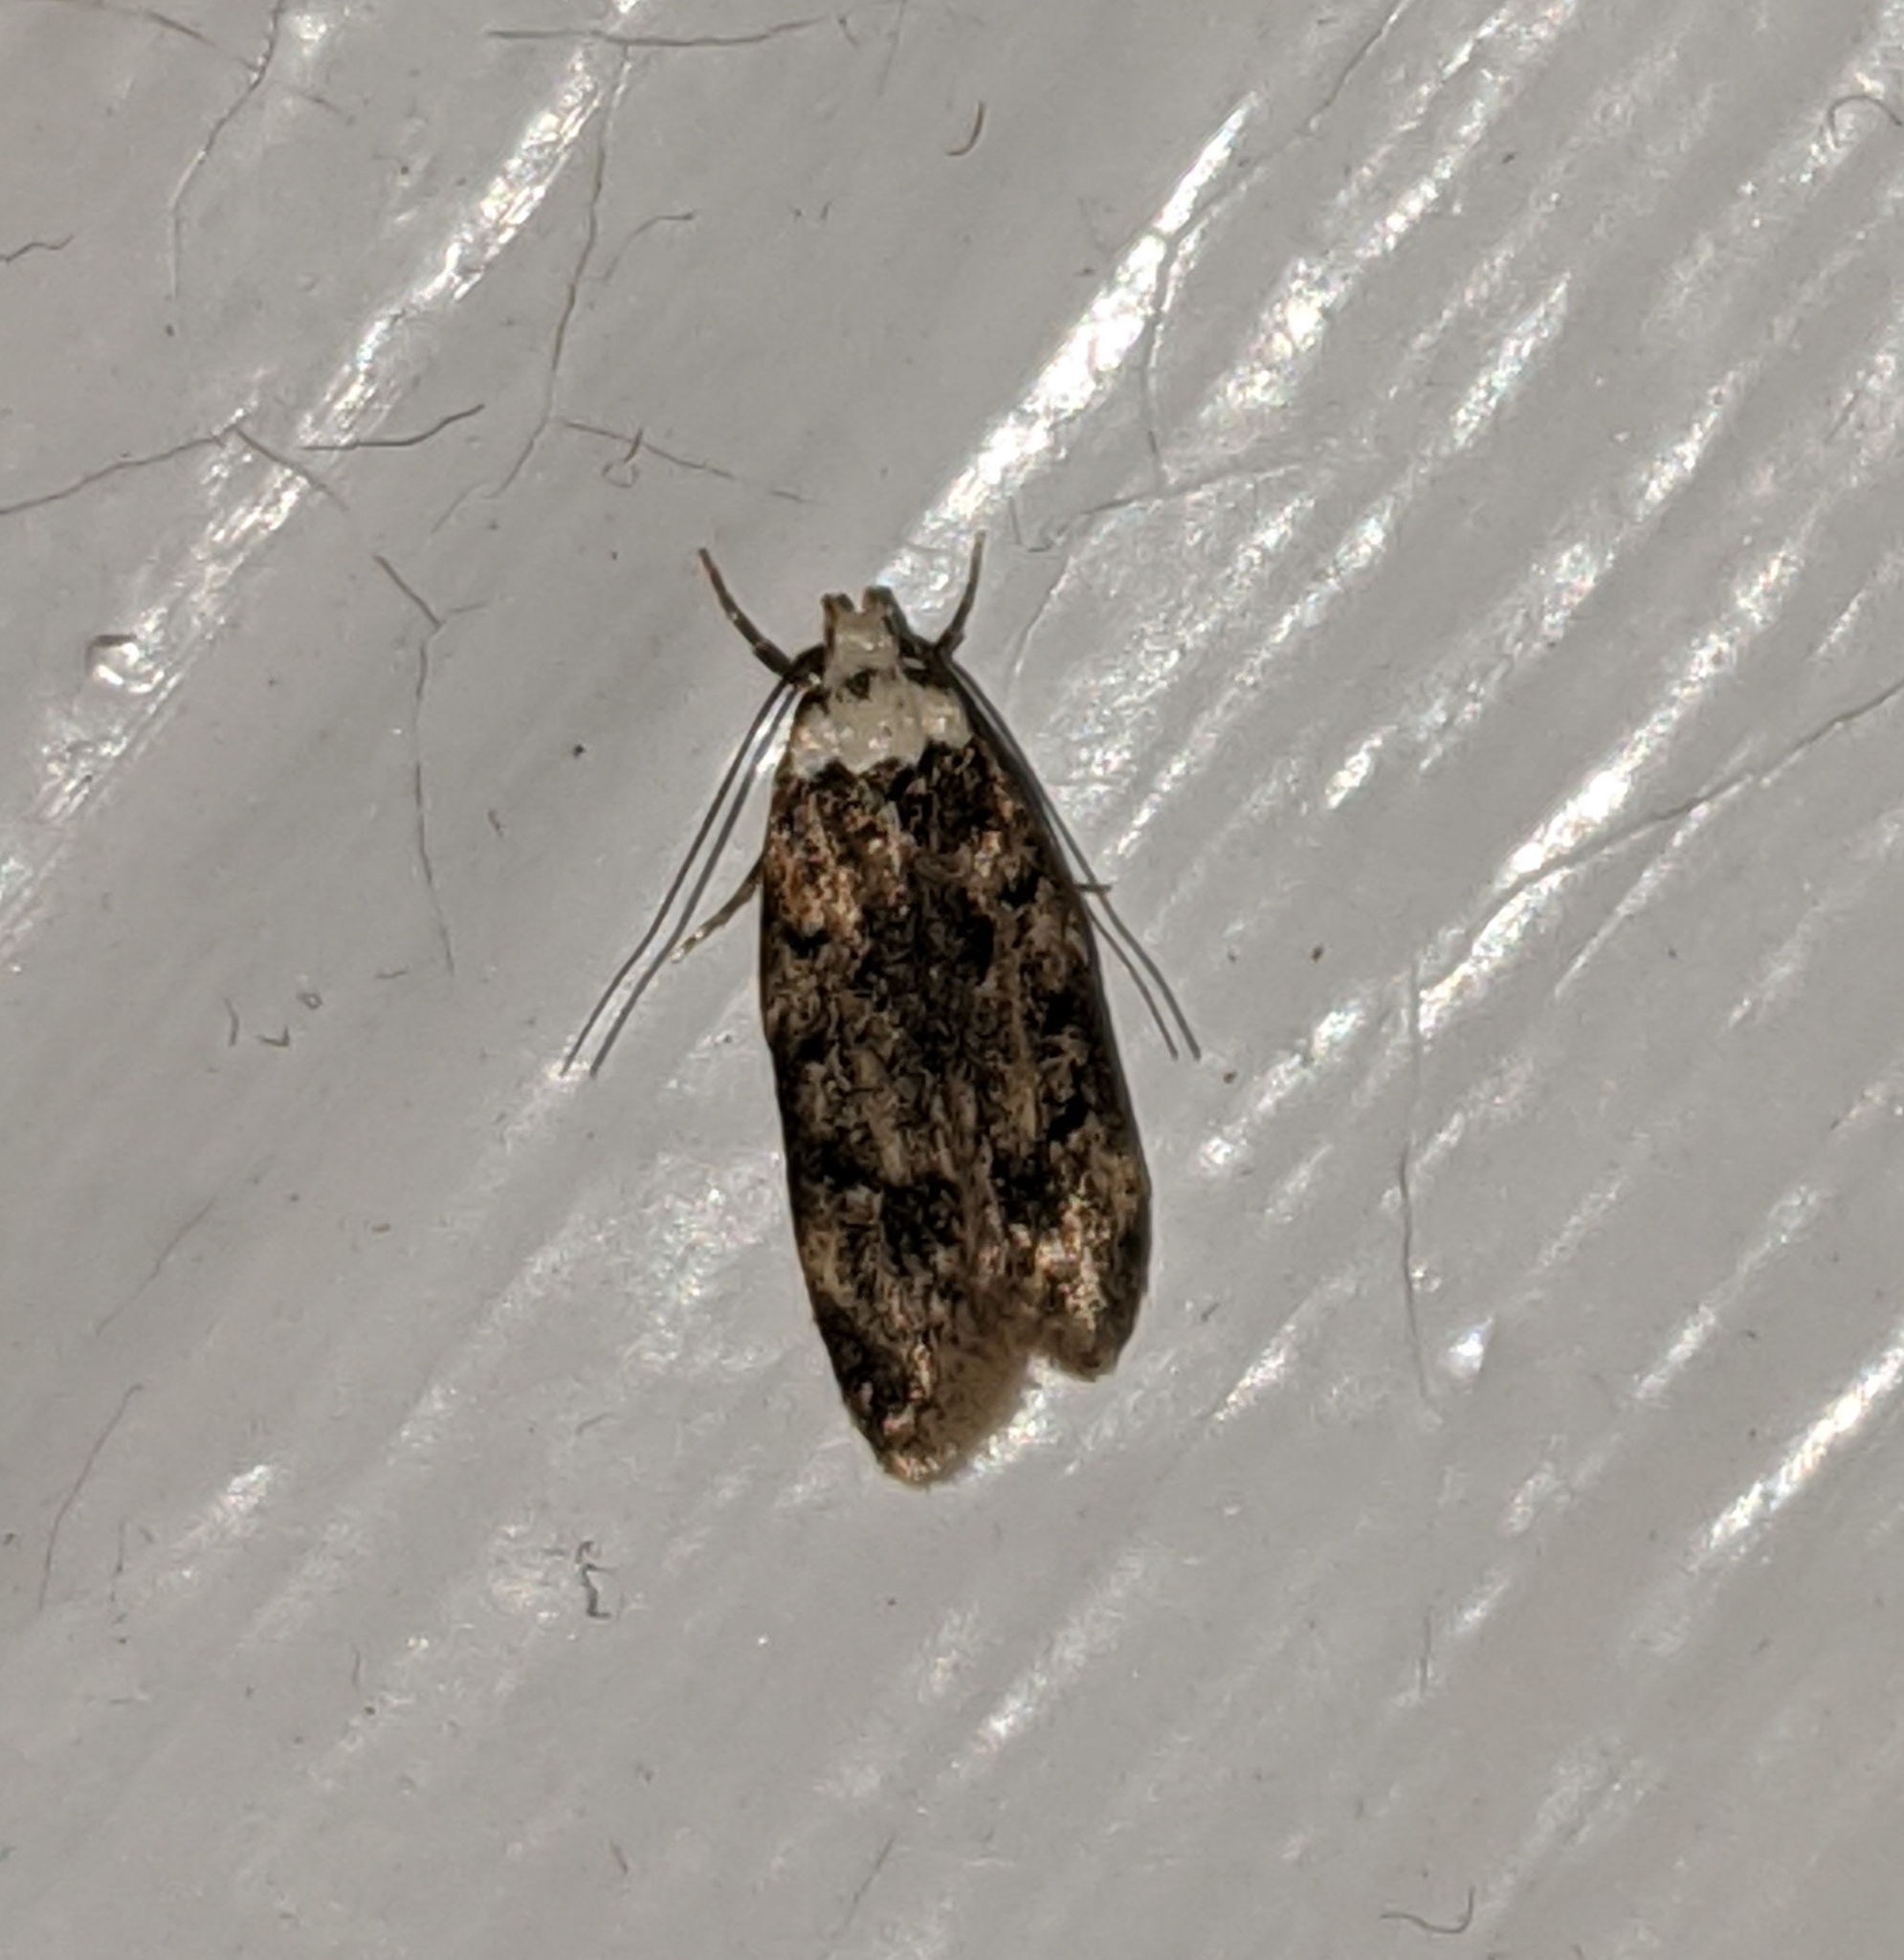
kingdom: Animalia
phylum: Arthropoda
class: Insecta
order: Lepidoptera
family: Oecophoridae
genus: Endrosis
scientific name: Endrosis sarcitrella
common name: White-shouldered house moth
